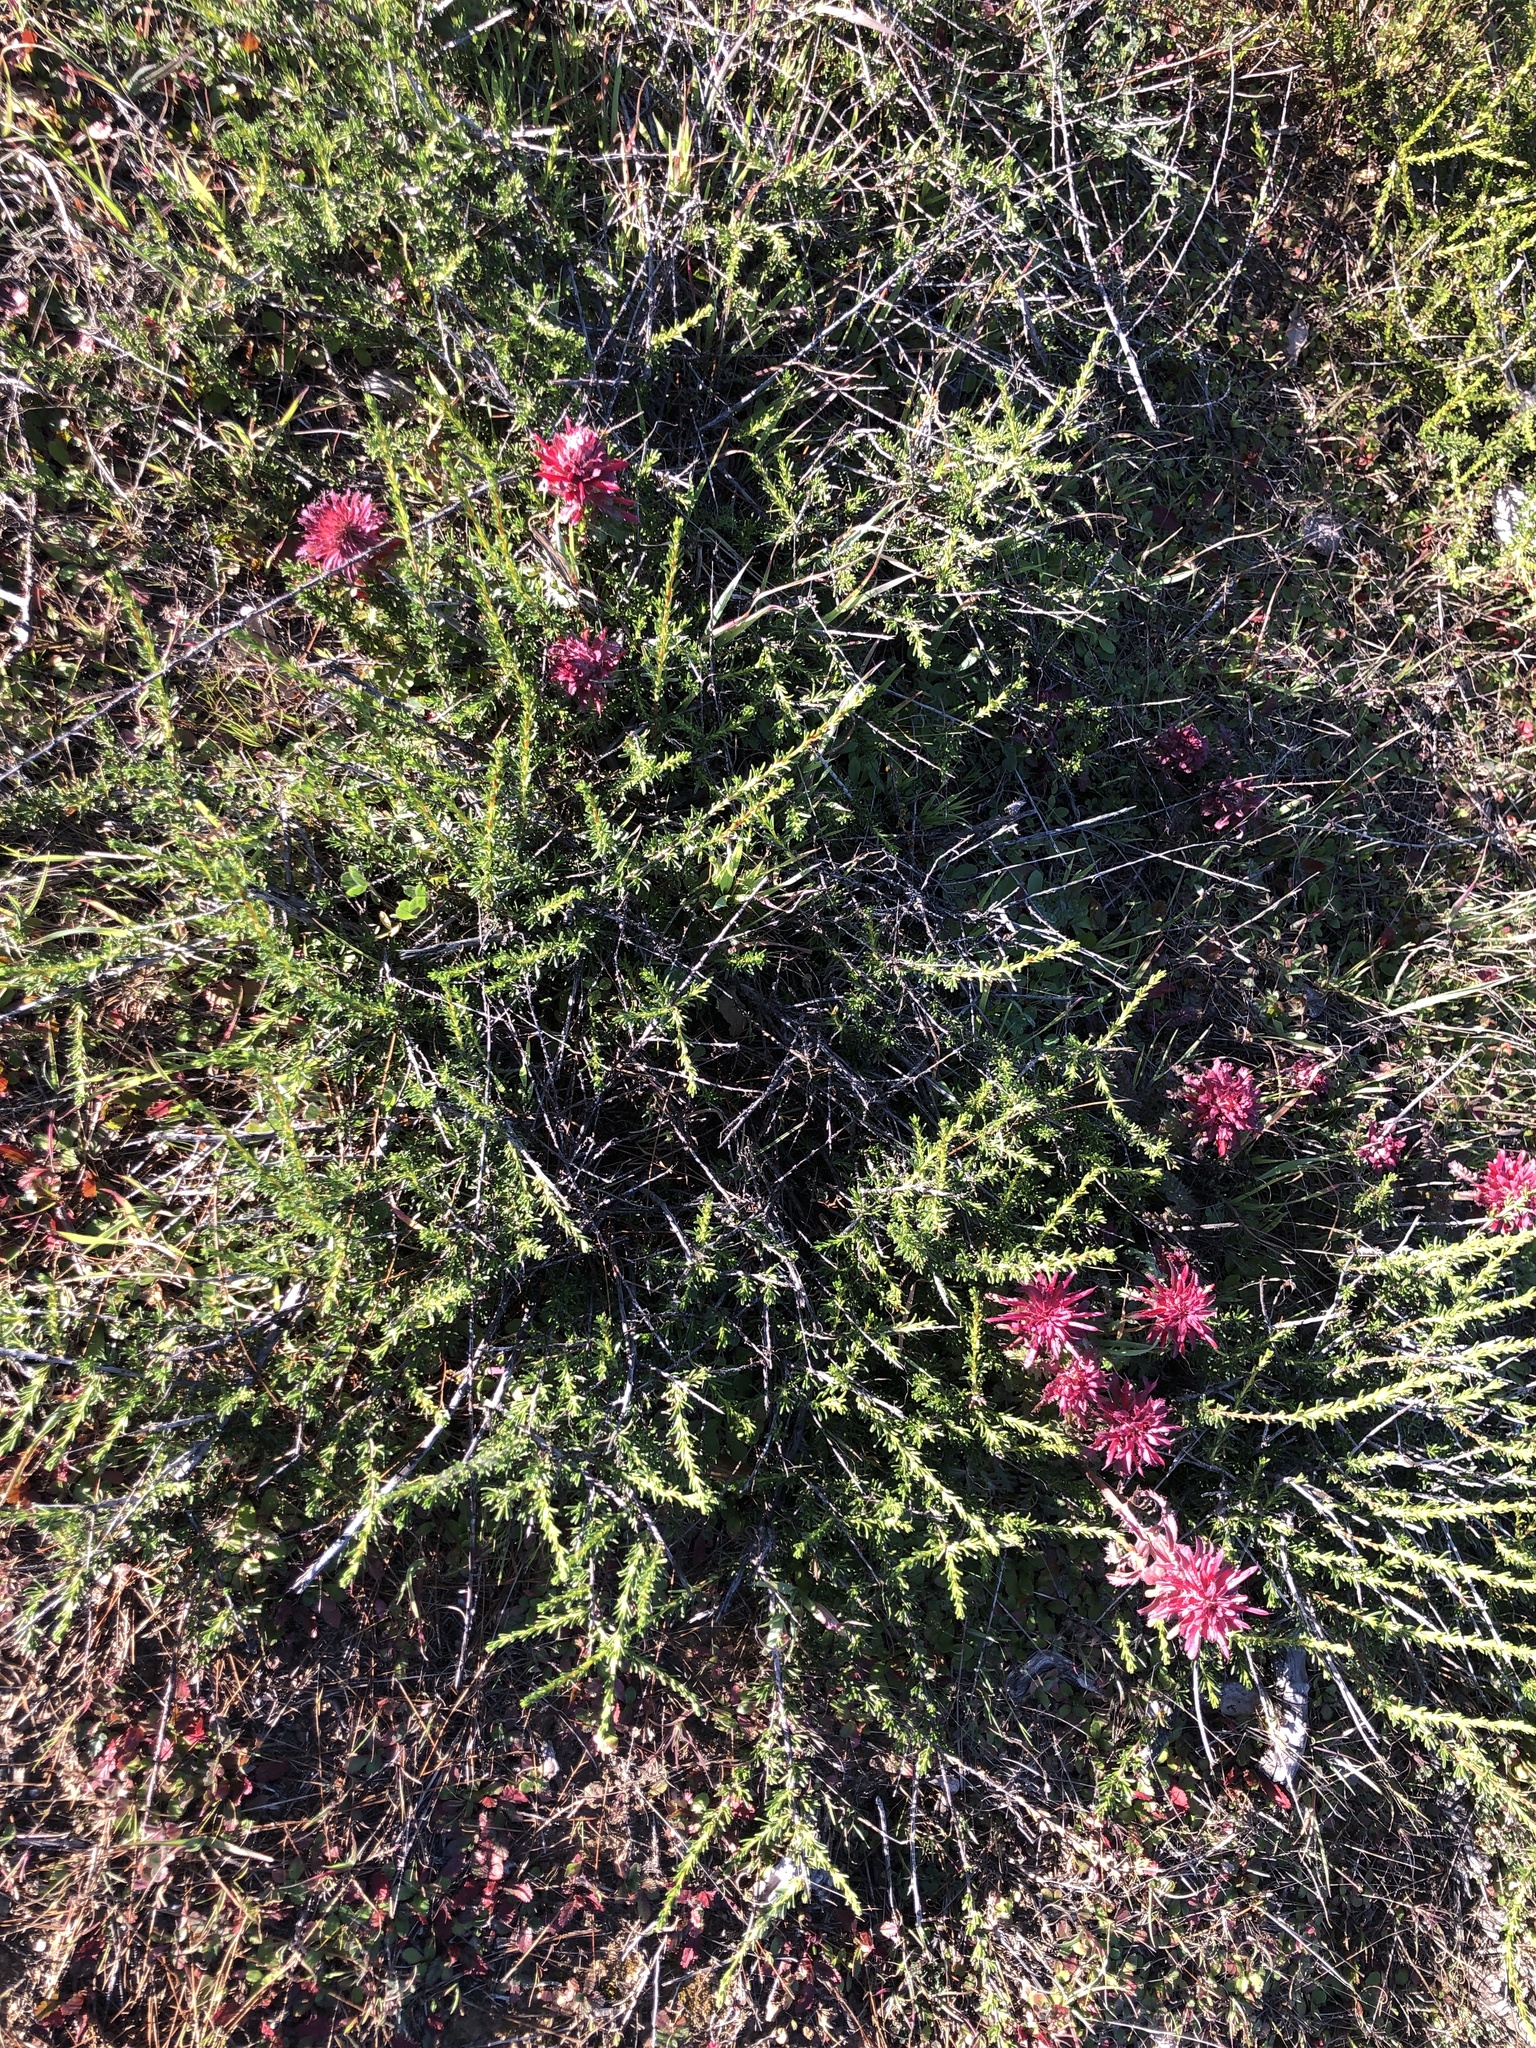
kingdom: Plantae
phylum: Tracheophyta
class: Magnoliopsida
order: Lamiales
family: Orobanchaceae
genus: Pedicularis
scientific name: Pedicularis densiflora
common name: Indian warrior
